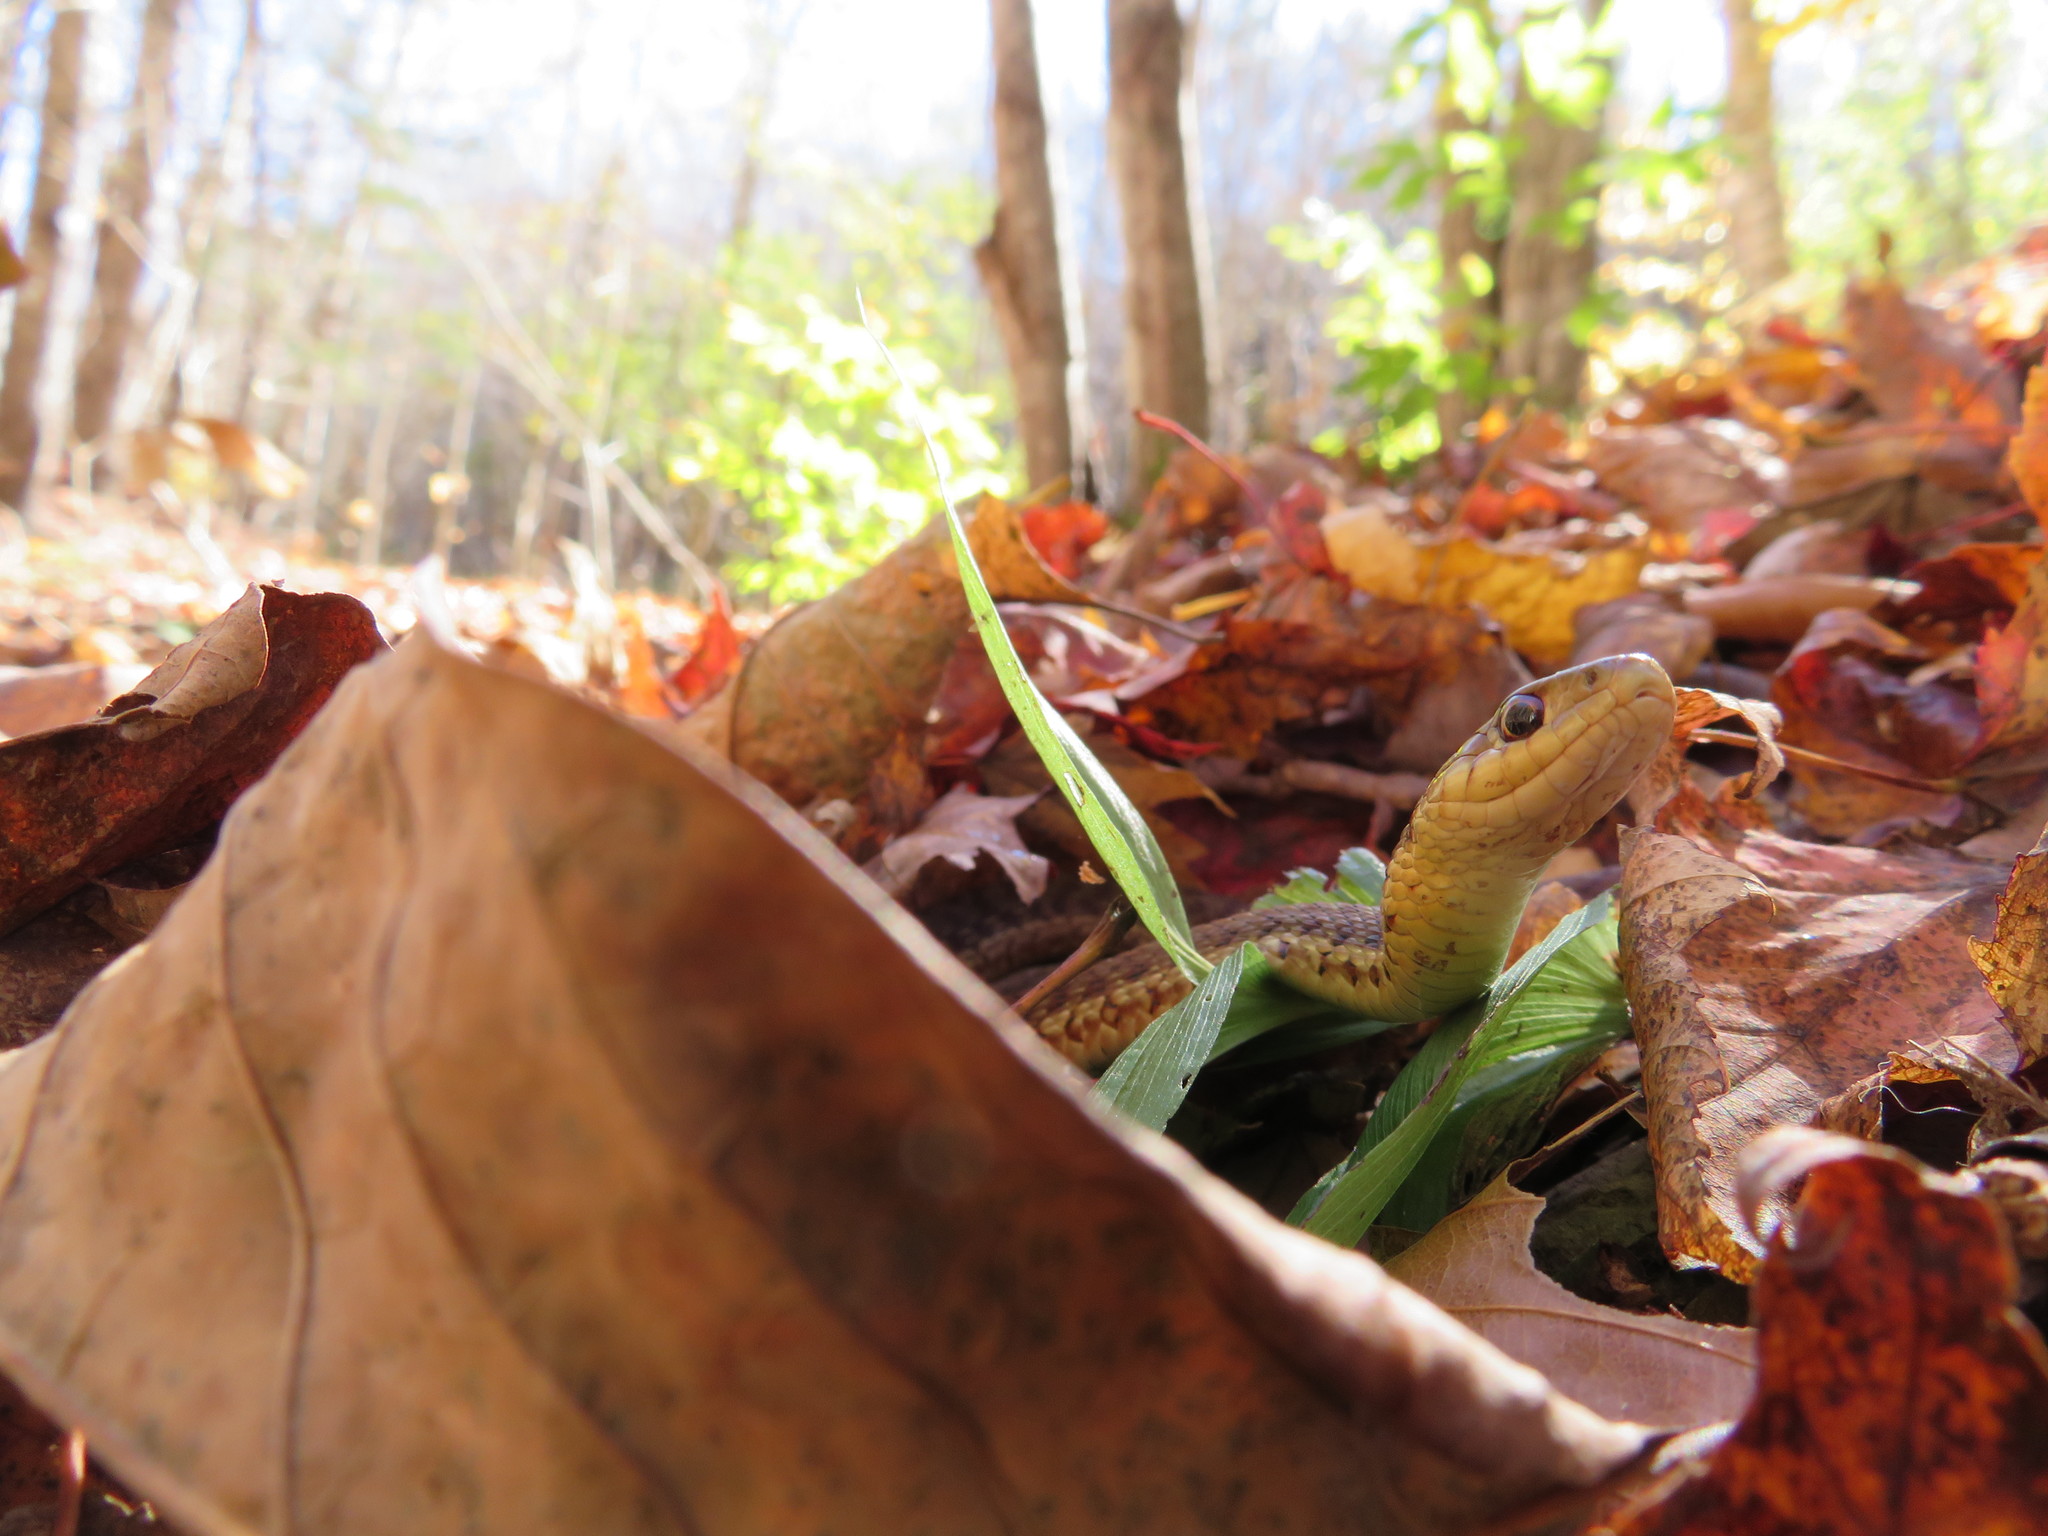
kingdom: Animalia
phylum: Chordata
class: Squamata
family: Colubridae
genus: Thamnophis
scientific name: Thamnophis sirtalis
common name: Common garter snake
